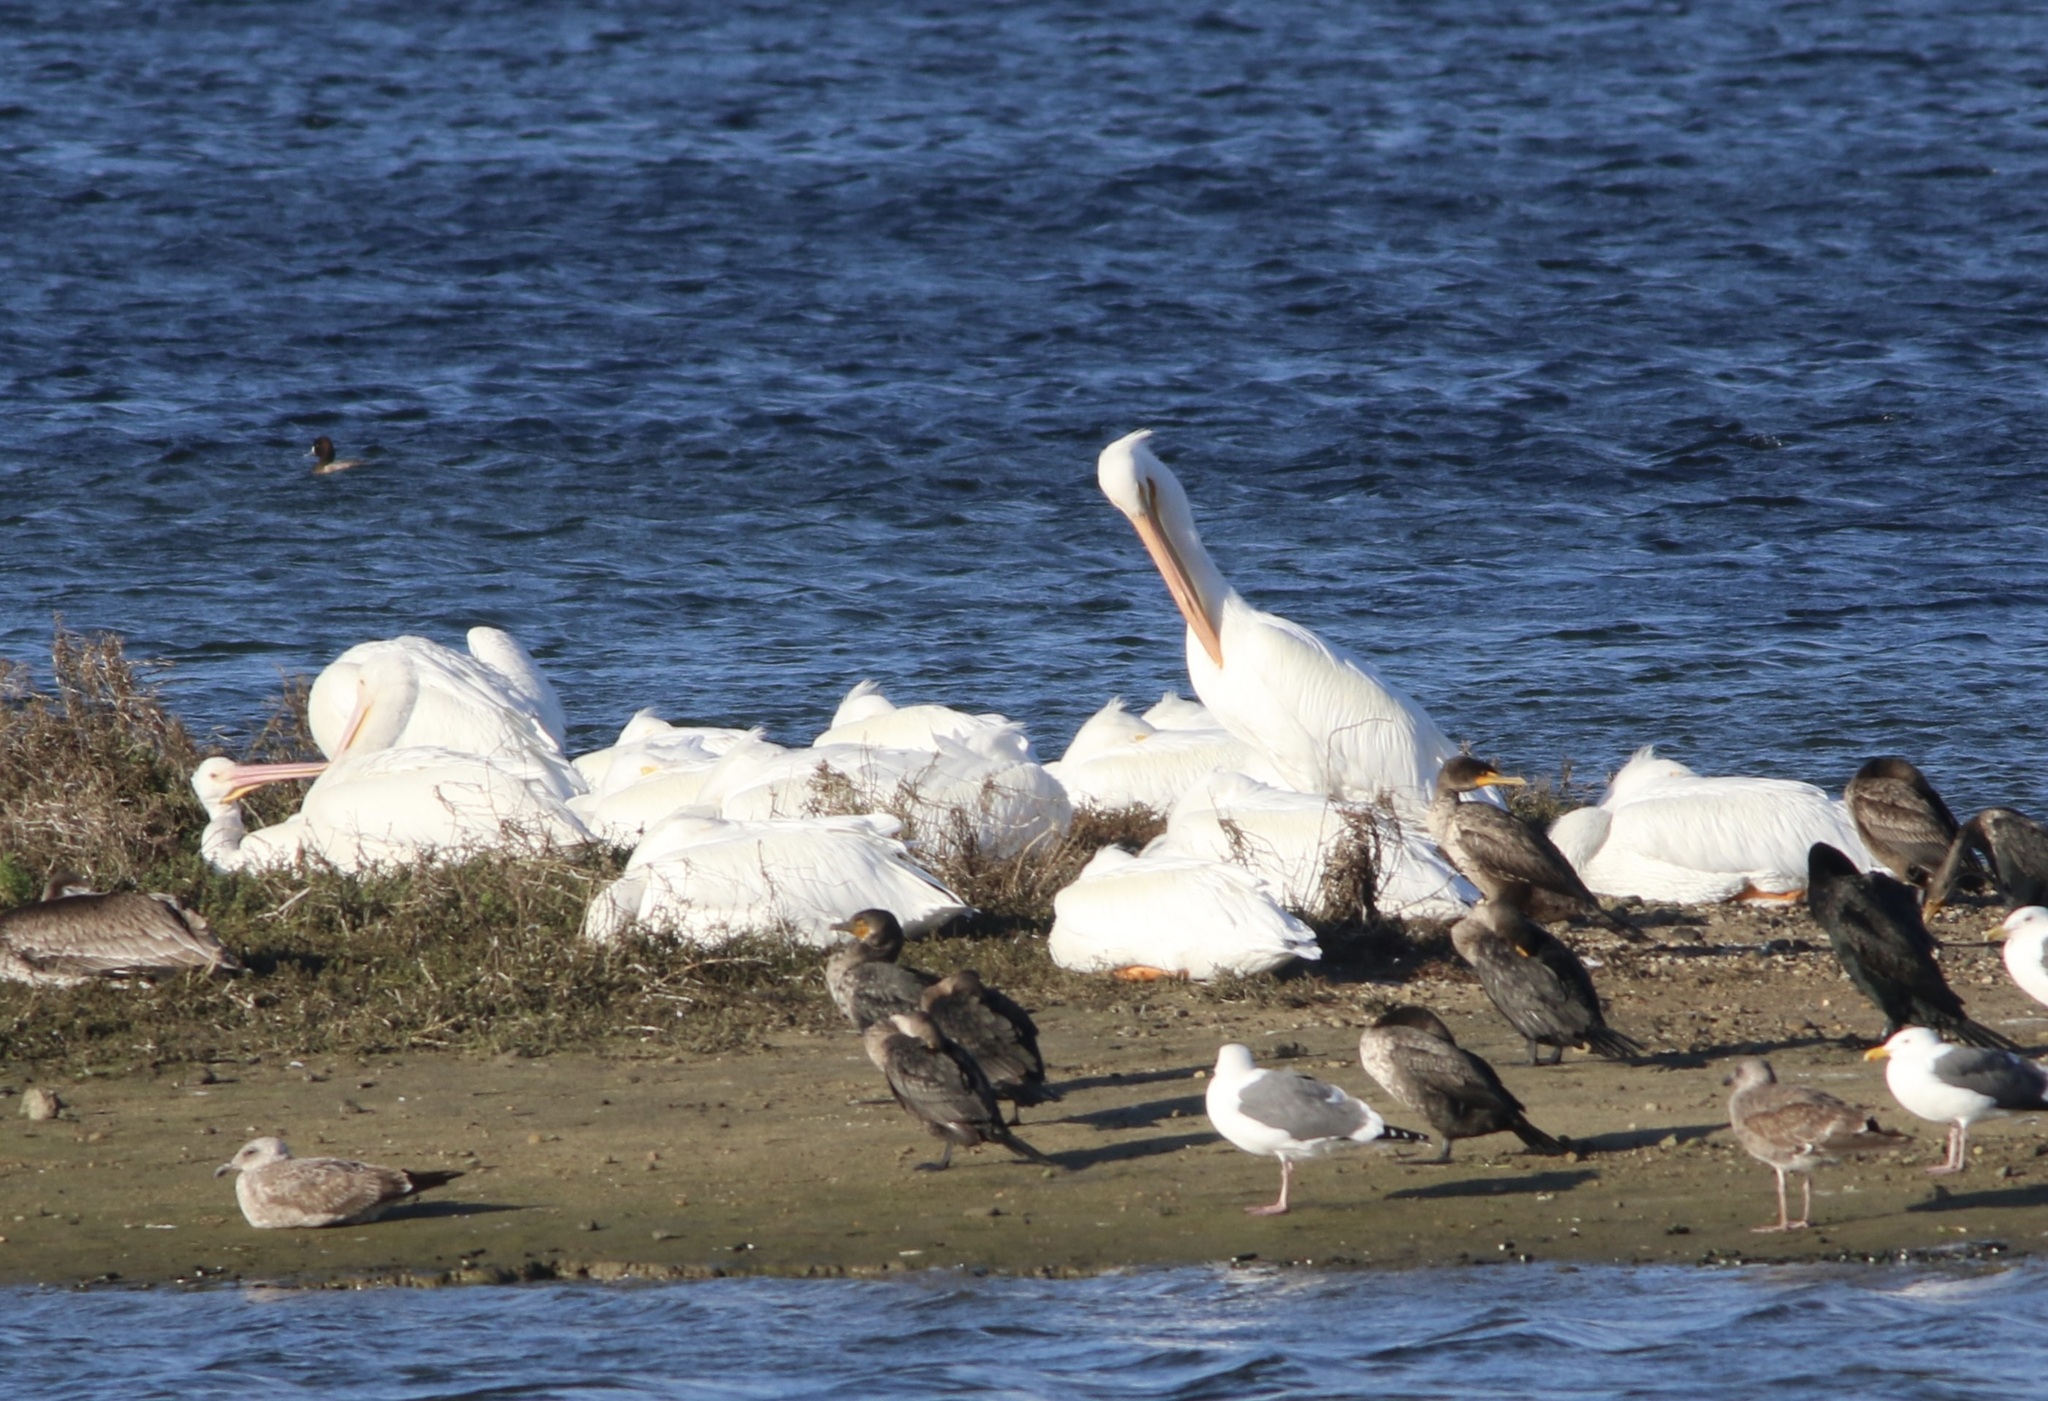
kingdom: Animalia
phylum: Chordata
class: Aves
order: Pelecaniformes
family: Pelecanidae
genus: Pelecanus
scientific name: Pelecanus erythrorhynchos
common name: American white pelican
